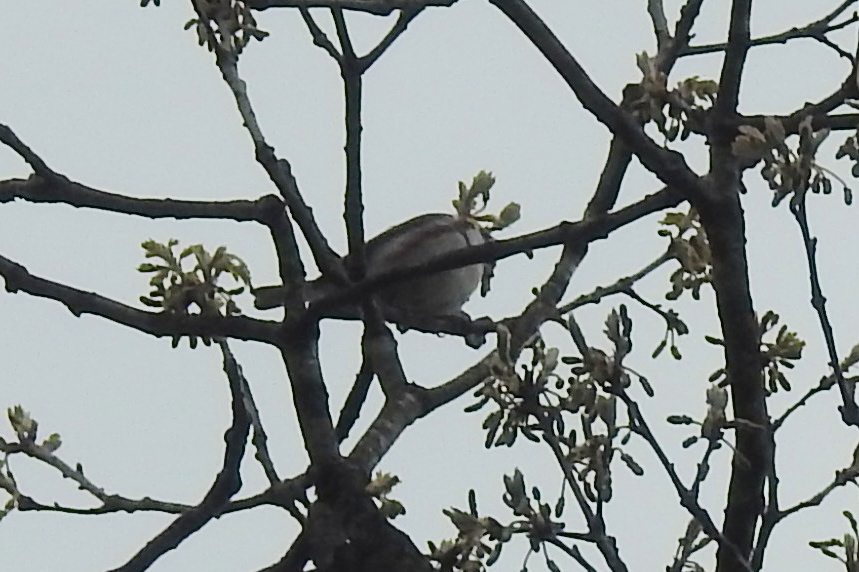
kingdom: Animalia
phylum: Chordata
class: Aves
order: Passeriformes
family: Parulidae
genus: Setophaga
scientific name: Setophaga pensylvanica
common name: Chestnut-sided warbler
